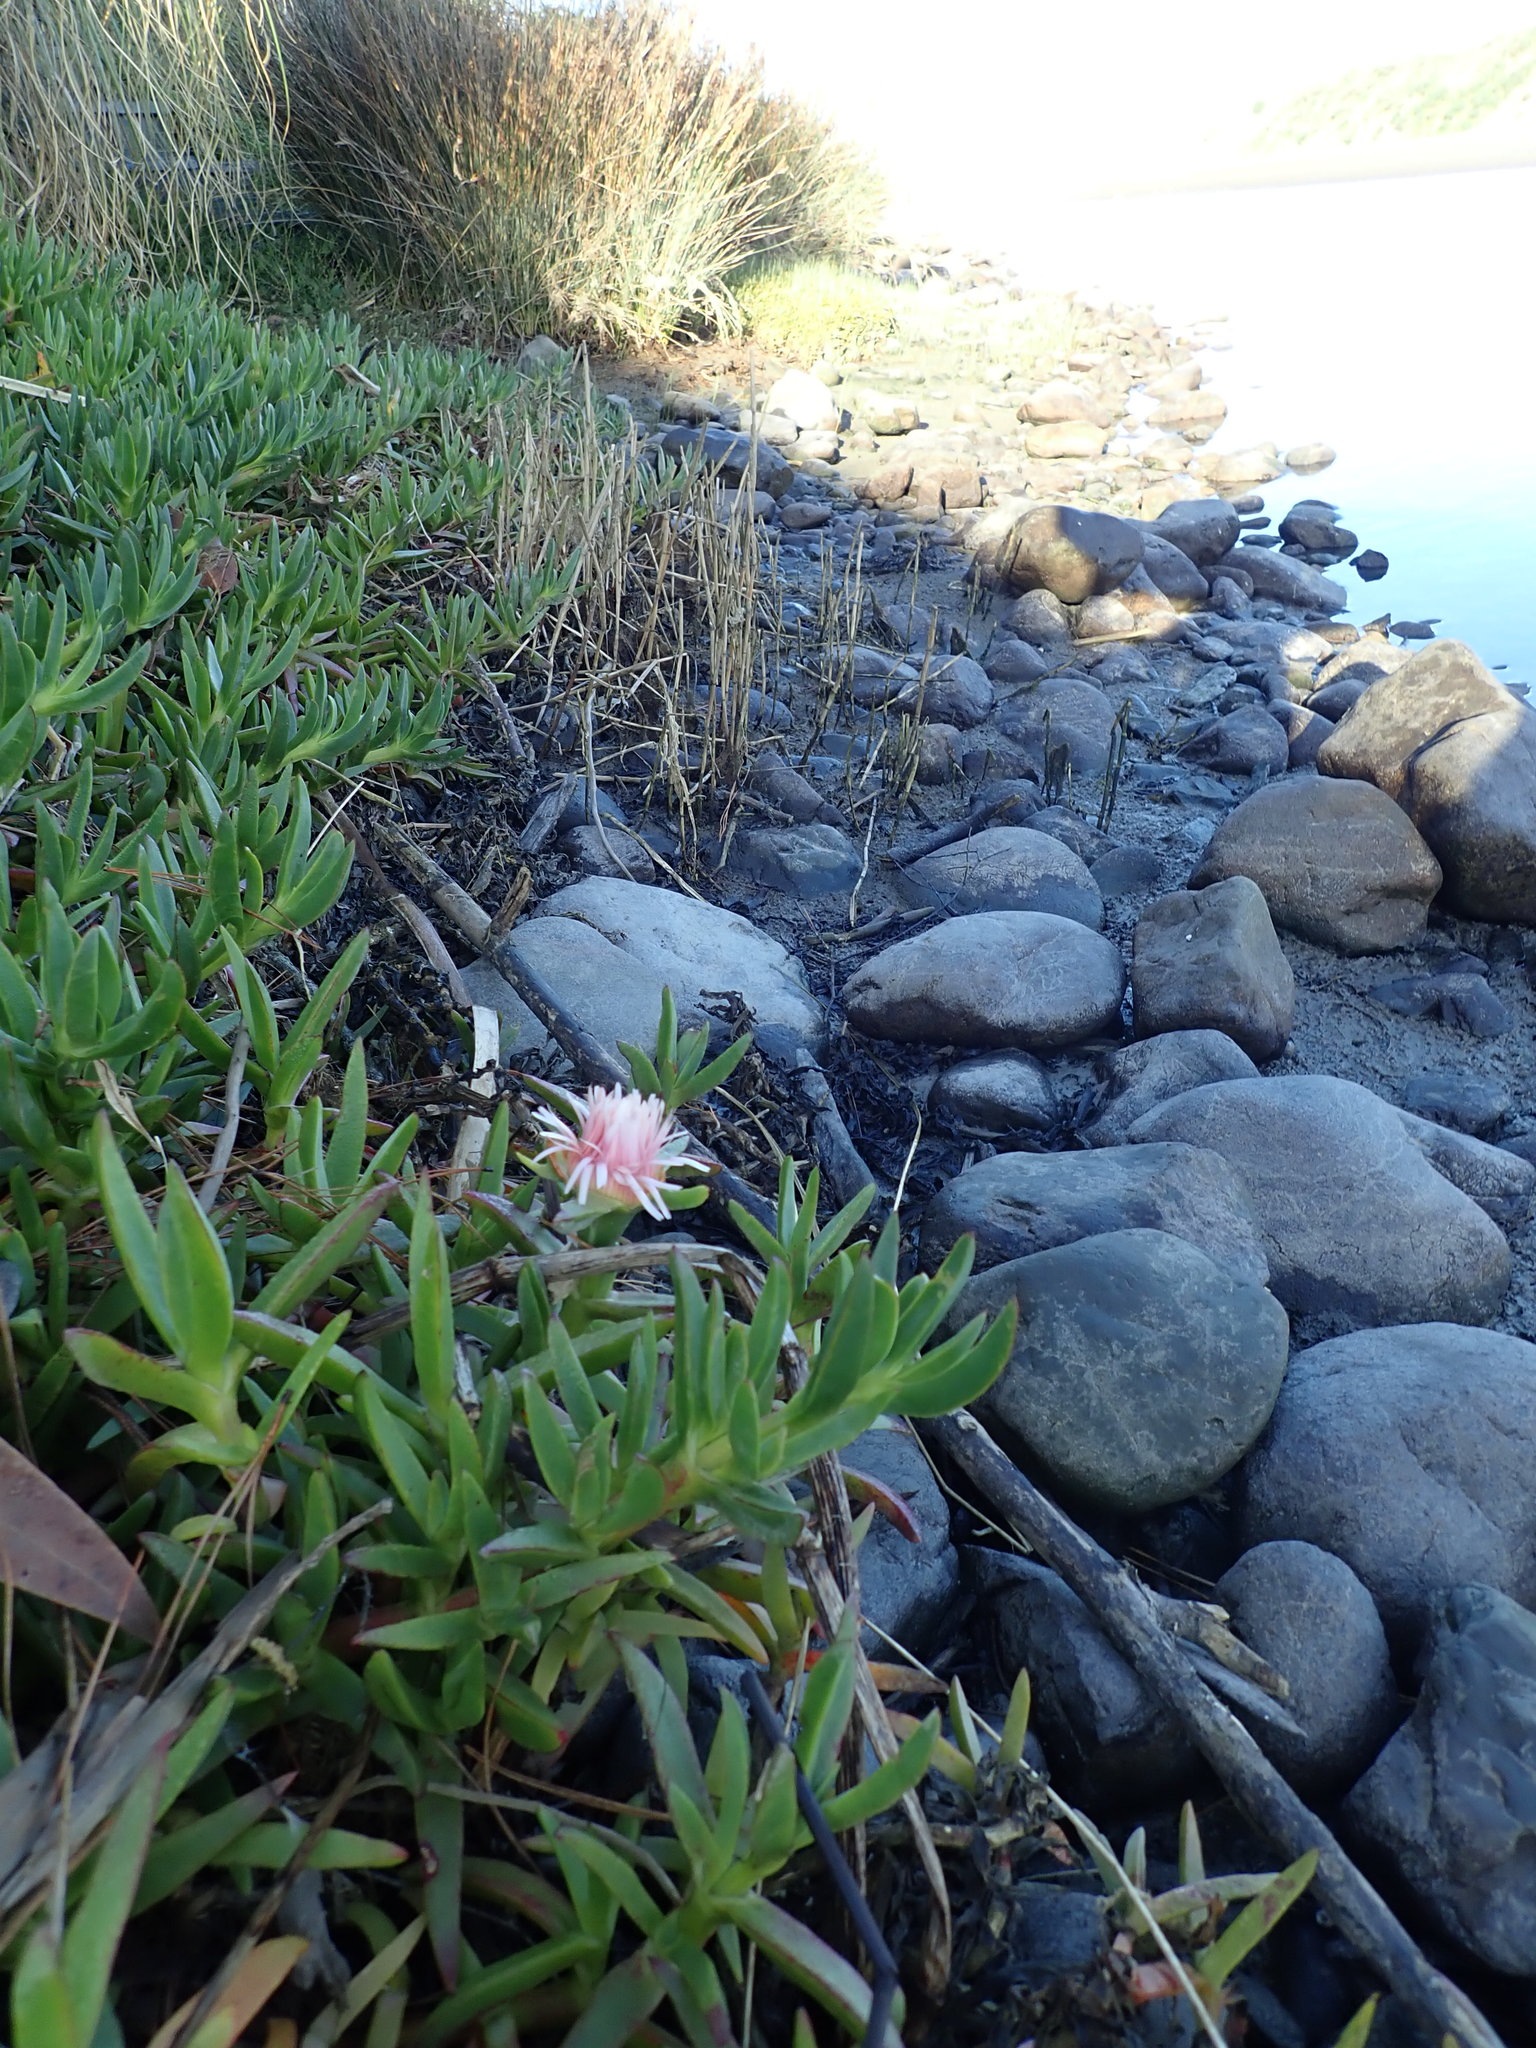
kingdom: Plantae
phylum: Tracheophyta
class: Magnoliopsida
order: Caryophyllales
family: Aizoaceae
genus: Carpobrotus
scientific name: Carpobrotus edulis
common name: Hottentot-fig
